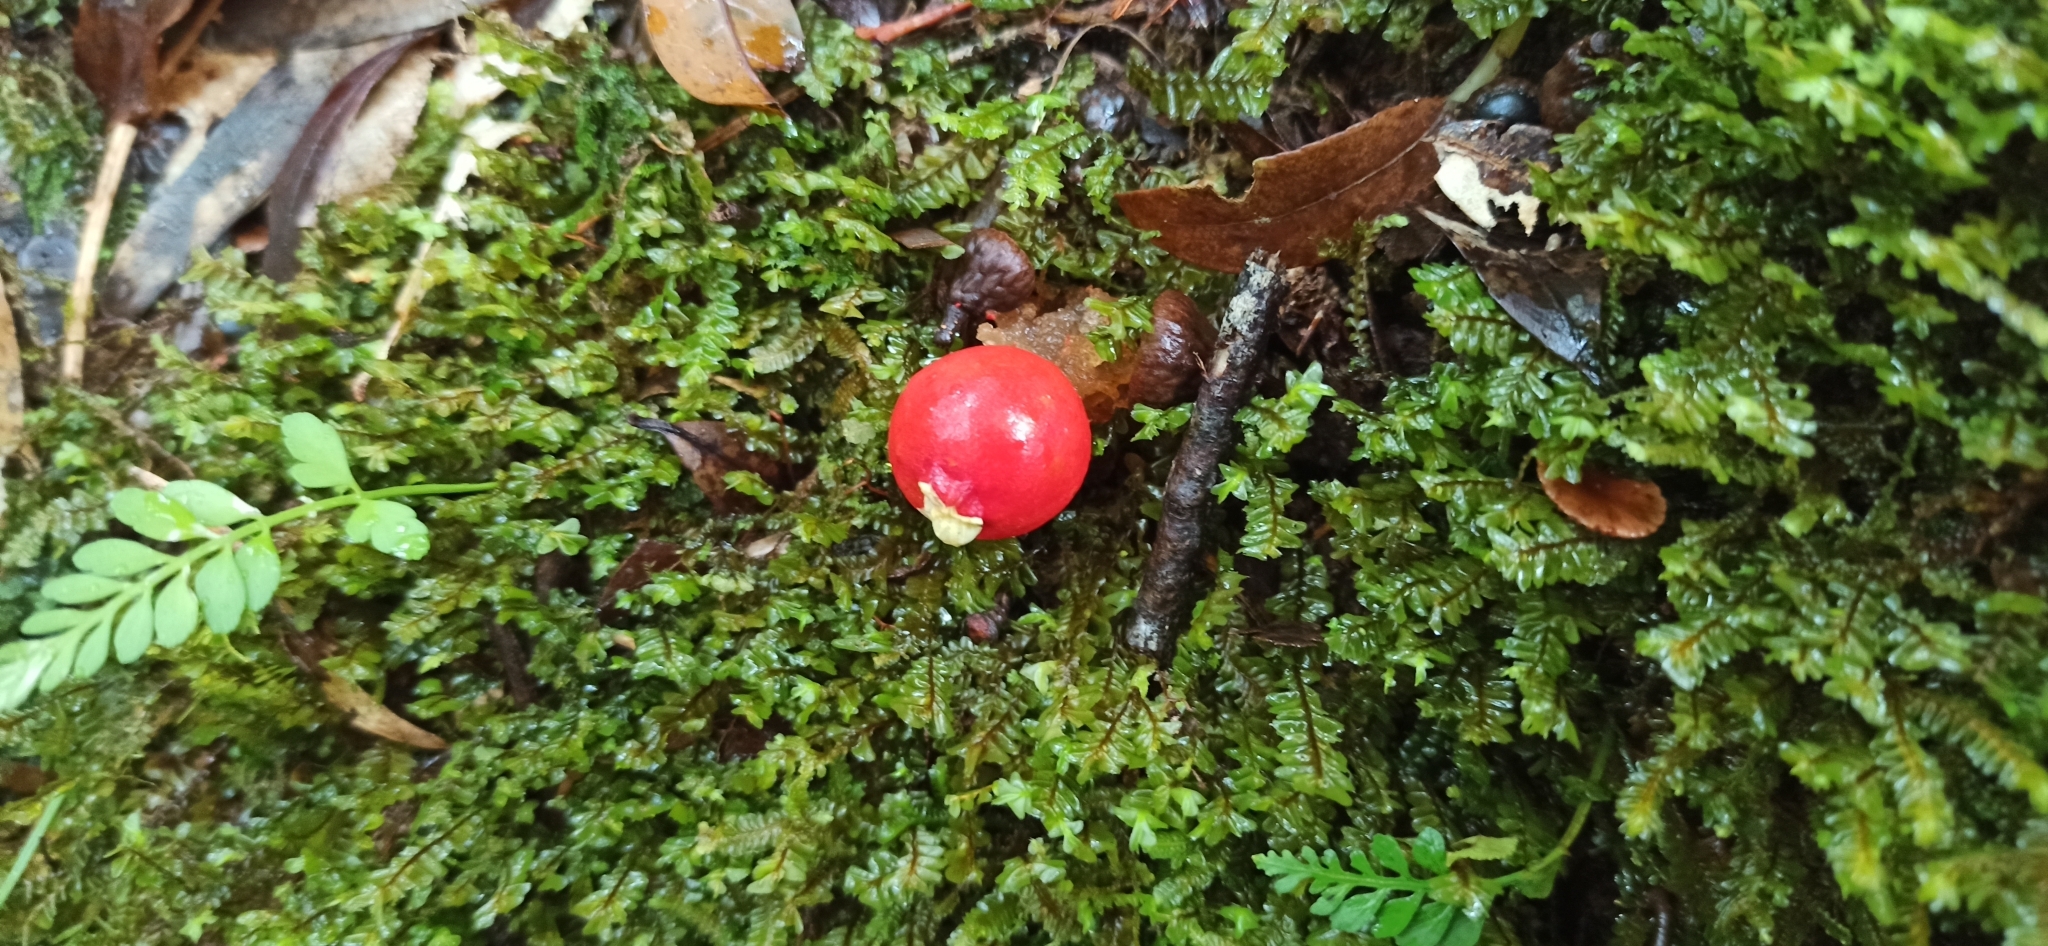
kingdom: Fungi
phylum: Basidiomycota
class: Agaricomycetes
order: Boletales
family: Calostomataceae
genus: Calostoma
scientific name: Calostoma cinnabarinum
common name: Stalked puffball-in-aspic
